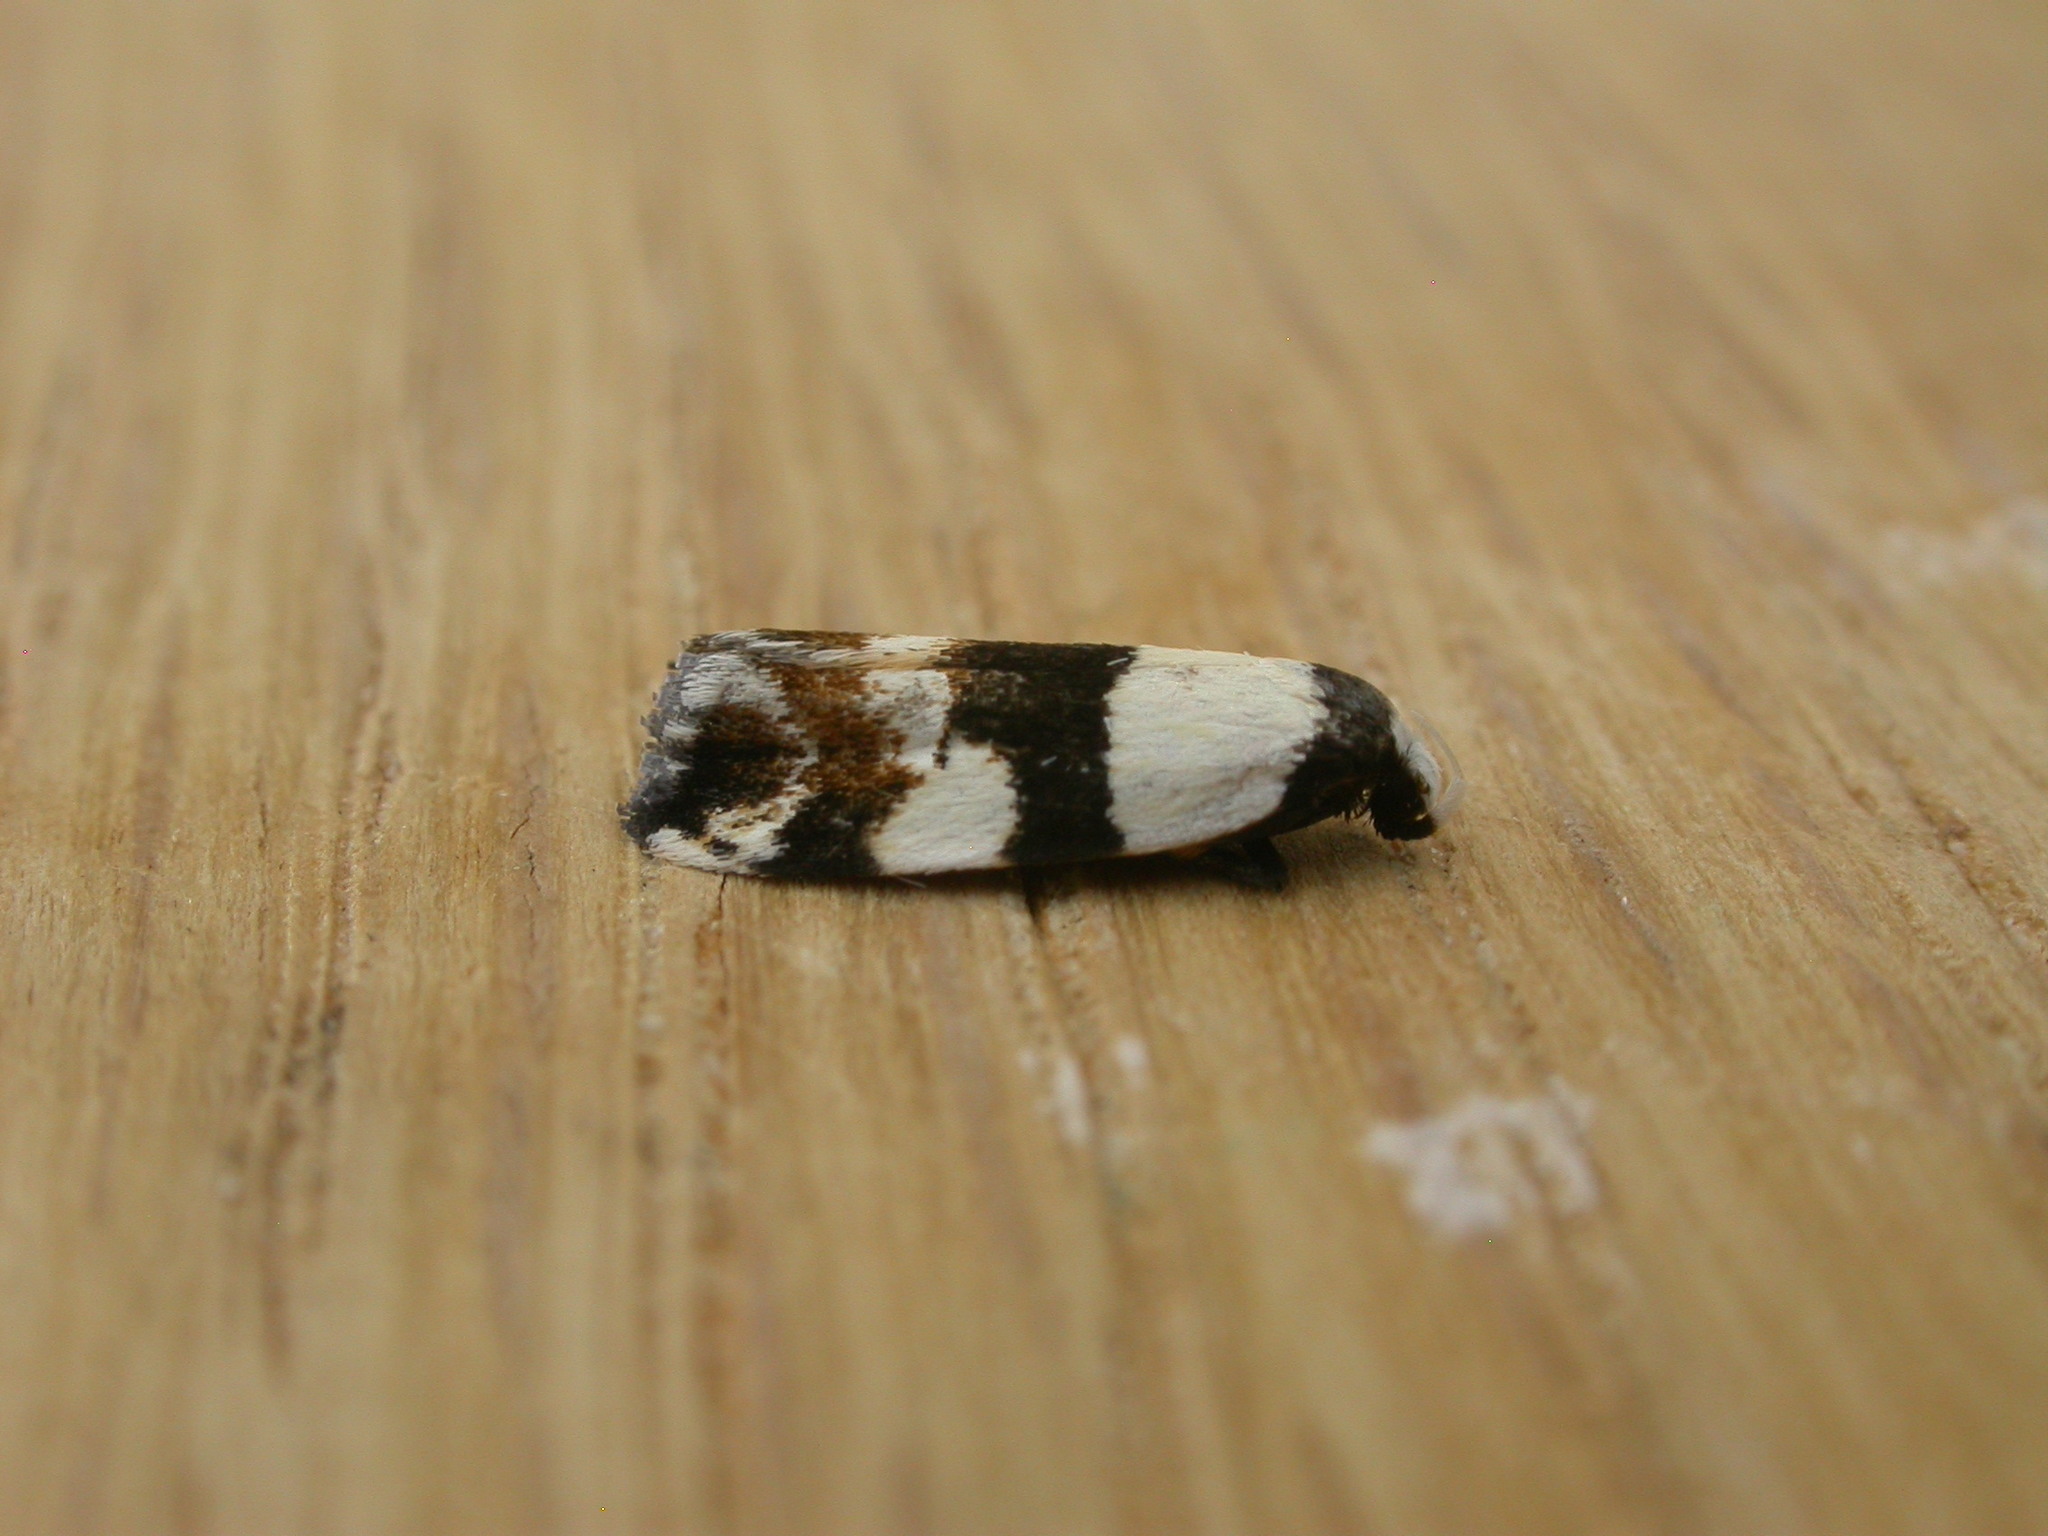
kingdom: Animalia
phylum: Arthropoda
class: Insecta
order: Lepidoptera
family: Oecophoridae
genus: Zonopetala
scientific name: Zonopetala decisana
